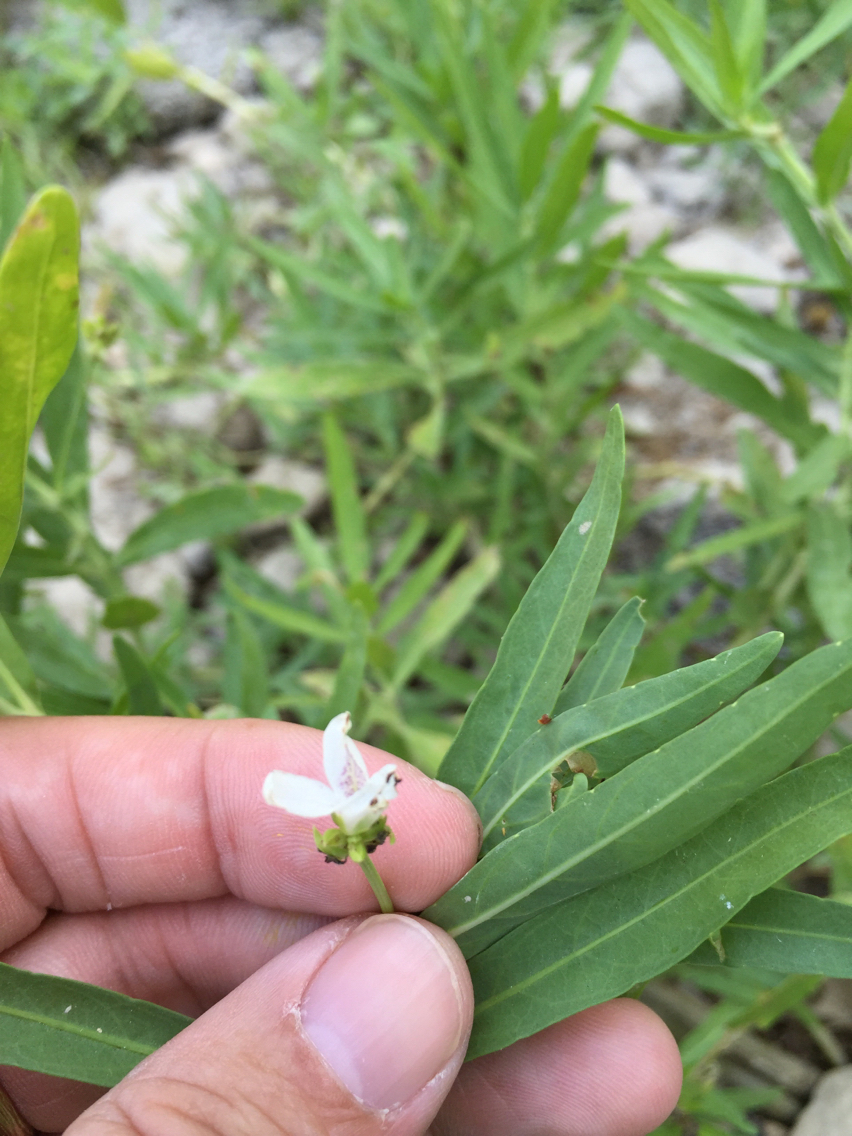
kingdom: Plantae
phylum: Tracheophyta
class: Magnoliopsida
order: Lamiales
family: Acanthaceae
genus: Dianthera
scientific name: Dianthera americana
